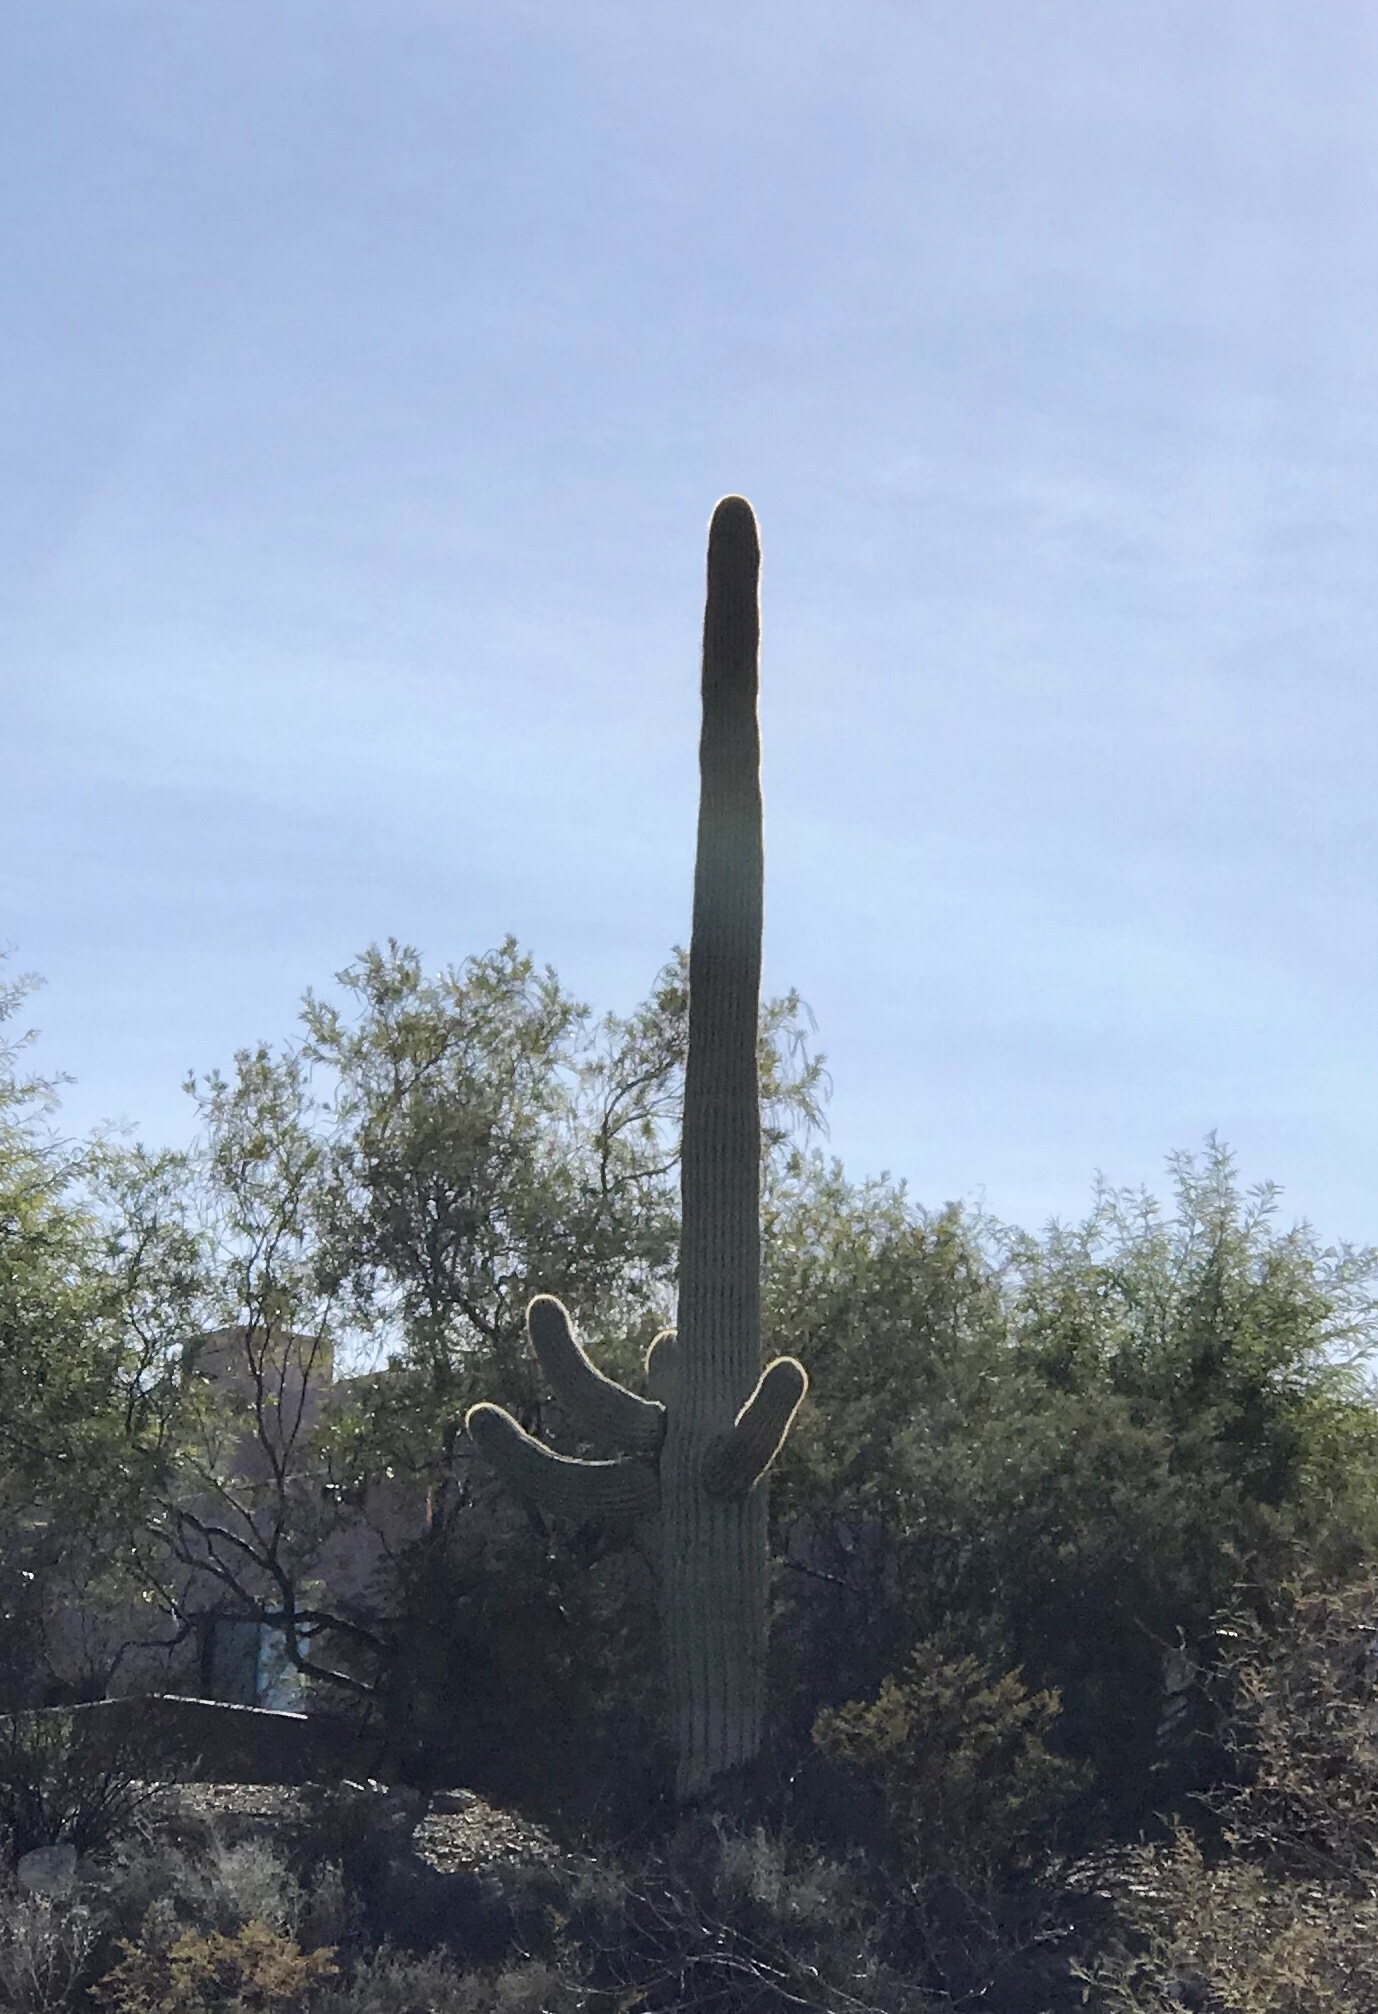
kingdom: Plantae
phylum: Tracheophyta
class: Magnoliopsida
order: Caryophyllales
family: Cactaceae
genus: Carnegiea
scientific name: Carnegiea gigantea
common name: Saguaro
